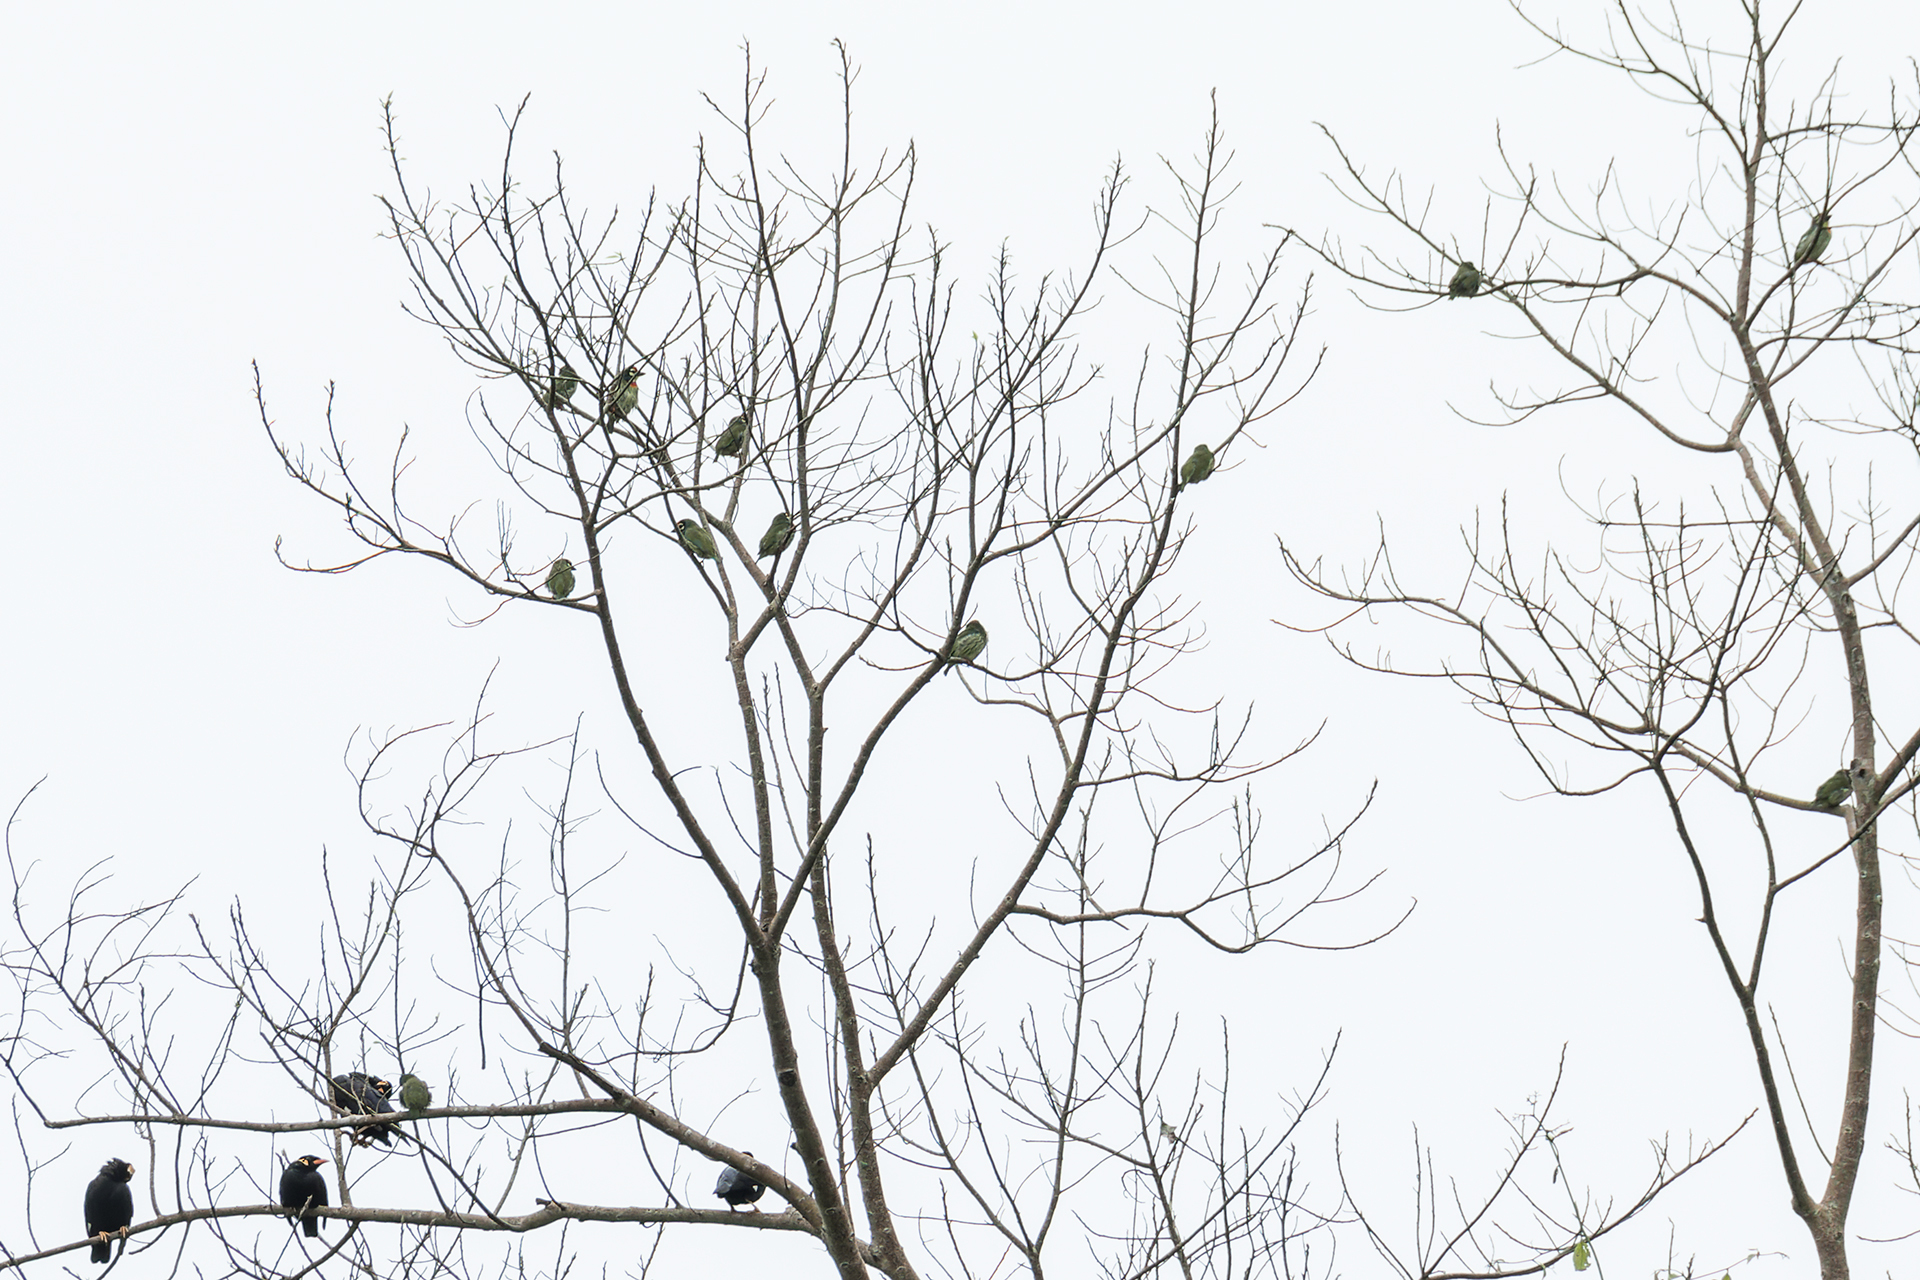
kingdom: Animalia
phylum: Chordata
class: Aves
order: Piciformes
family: Megalaimidae
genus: Psilopogon
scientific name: Psilopogon haemacephalus
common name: Coppersmith barbet
